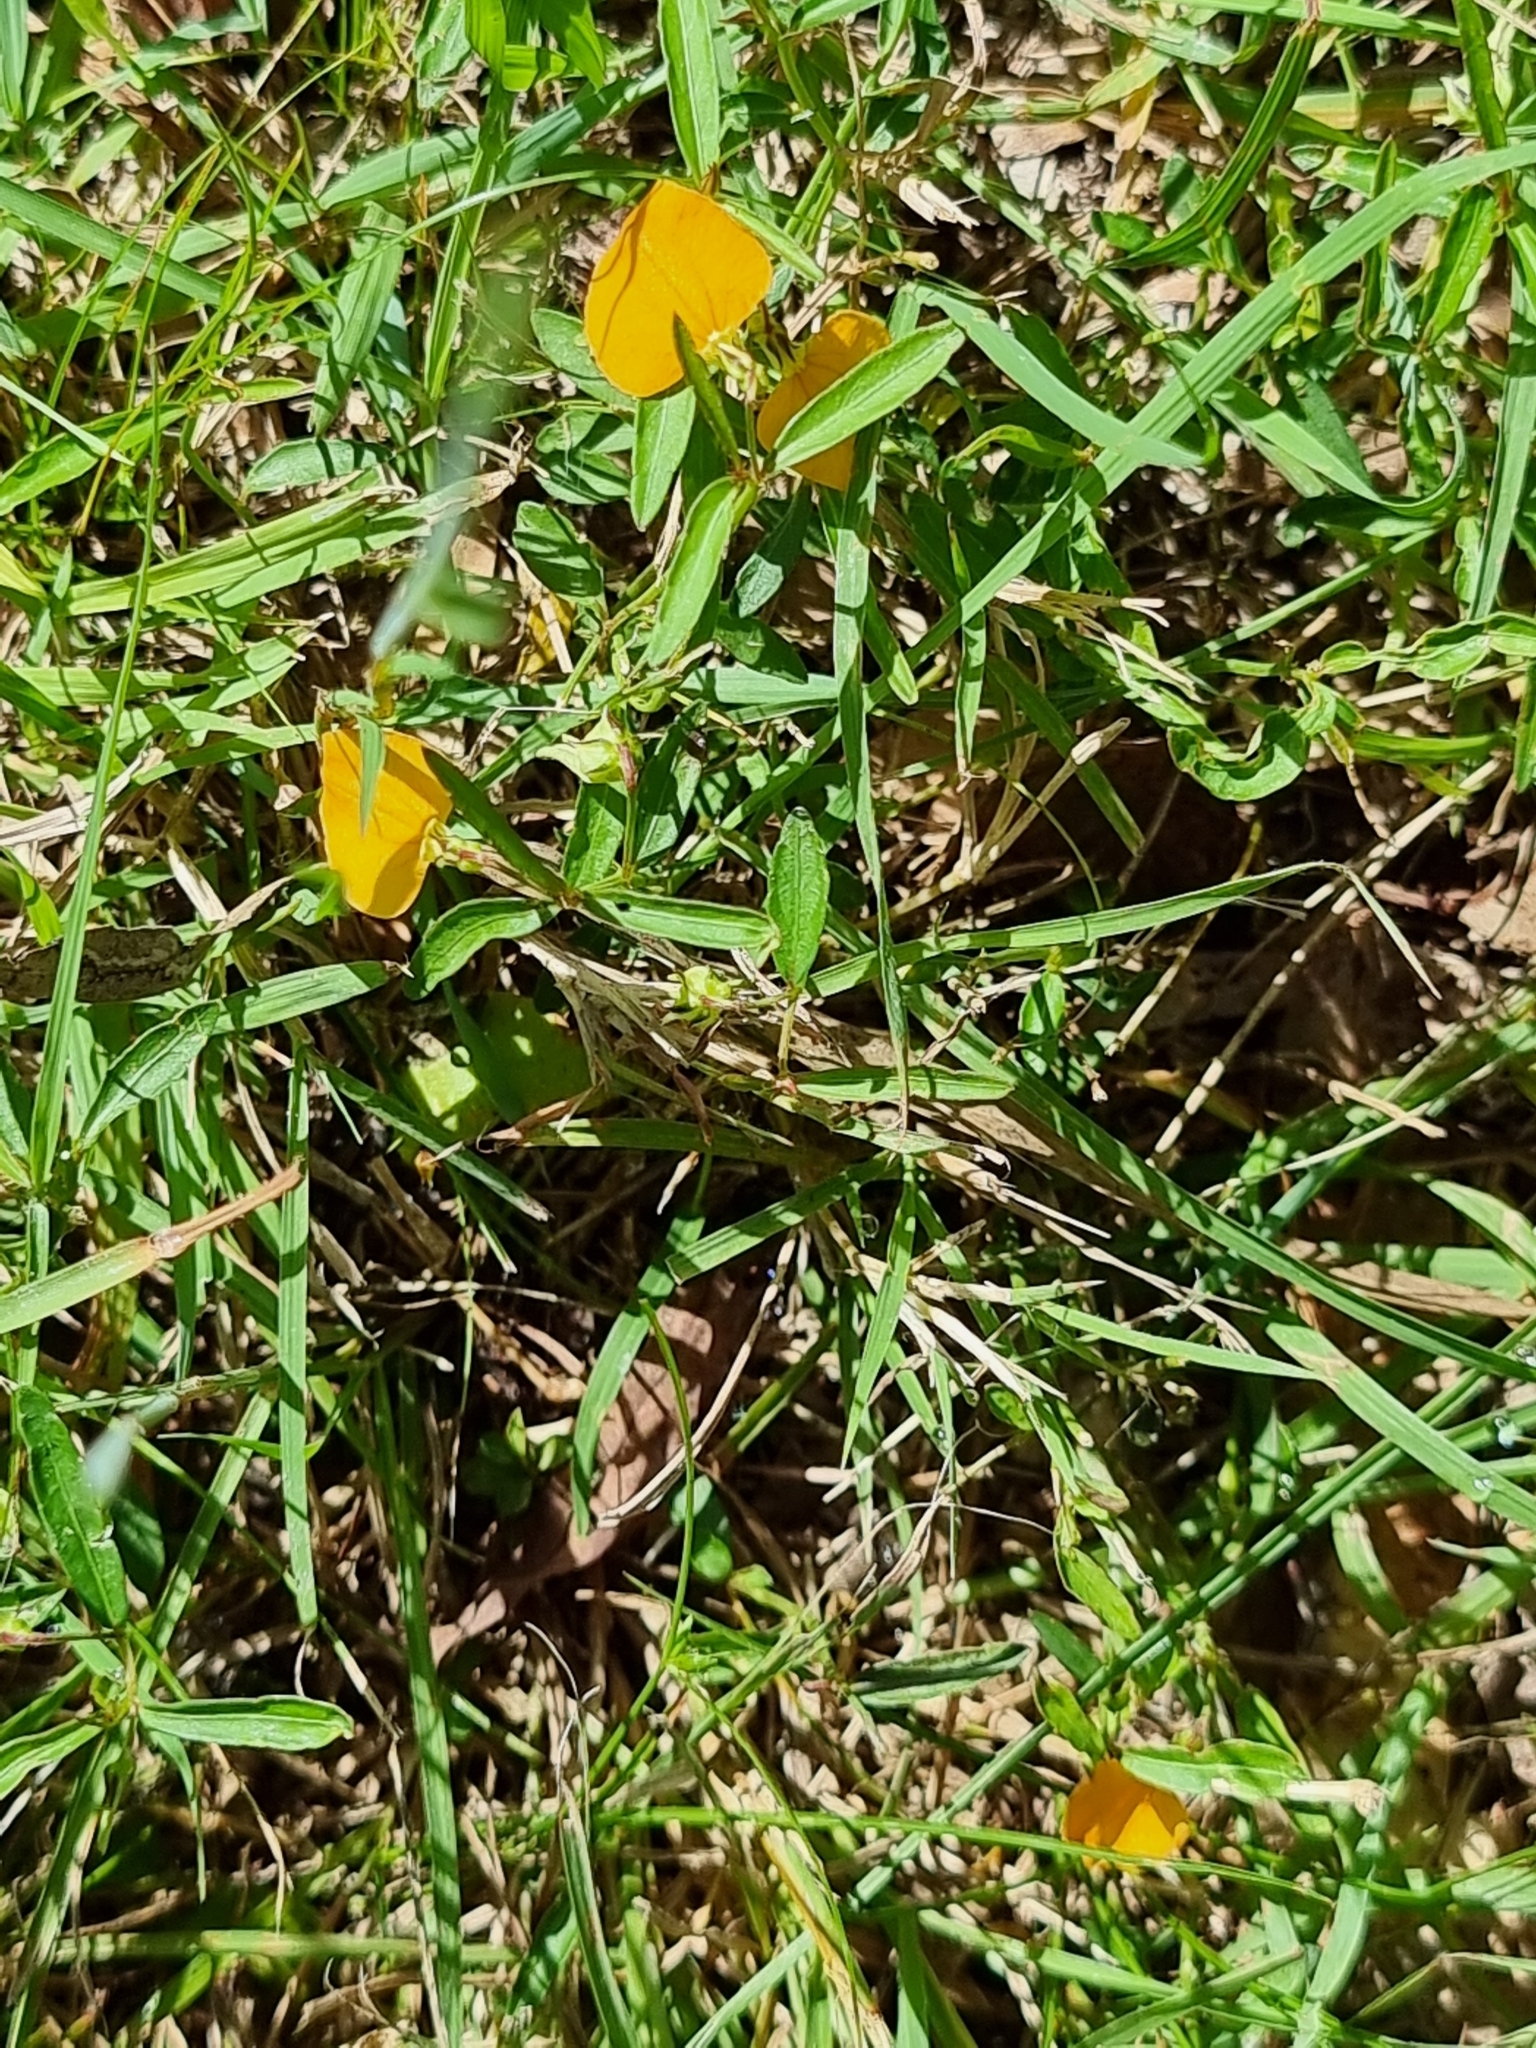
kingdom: Plantae
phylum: Tracheophyta
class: Magnoliopsida
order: Malpighiales
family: Violaceae
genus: Pigea
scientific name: Pigea stellarioides
